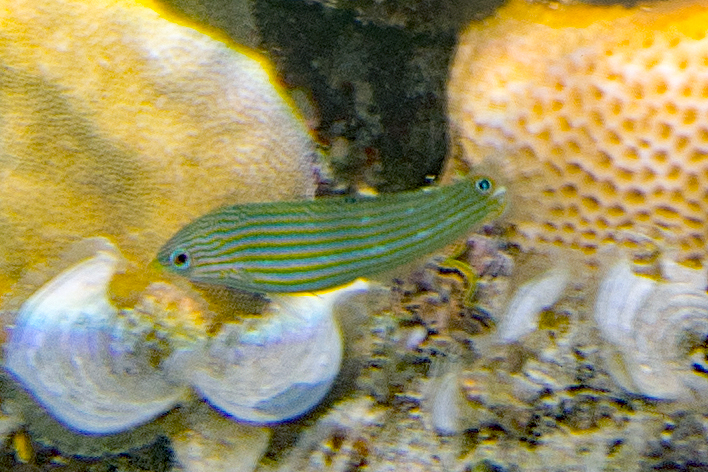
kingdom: Animalia
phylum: Chordata
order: Perciformes
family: Labridae
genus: Halichoeres
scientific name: Halichoeres melanurus
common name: Hoeven's wrasse
